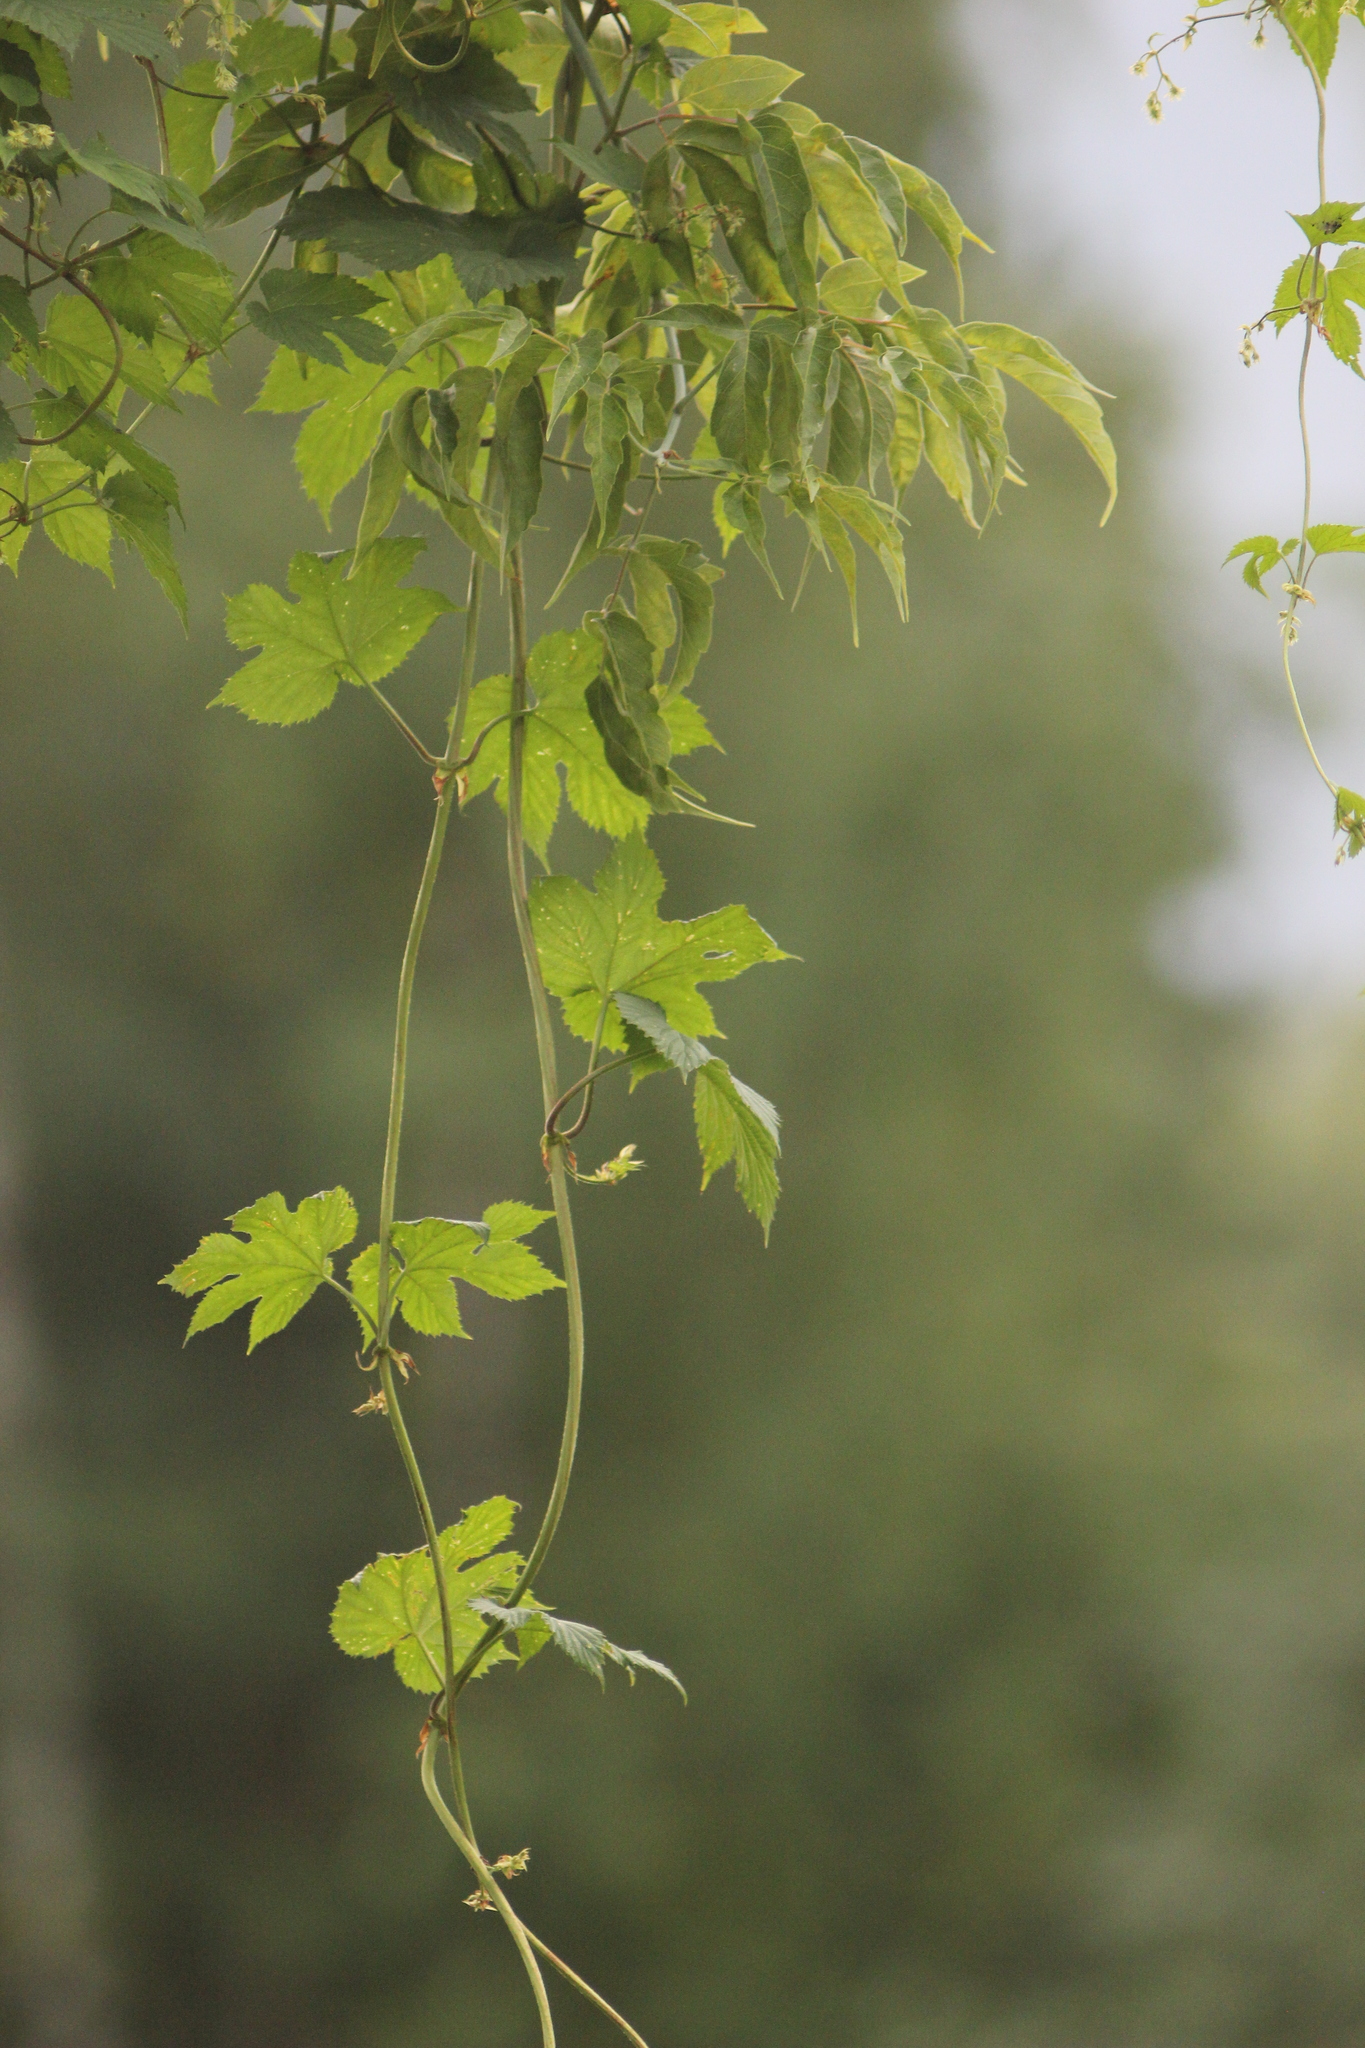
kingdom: Plantae
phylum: Tracheophyta
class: Magnoliopsida
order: Rosales
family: Cannabaceae
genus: Humulus
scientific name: Humulus lupulus
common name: Hop
